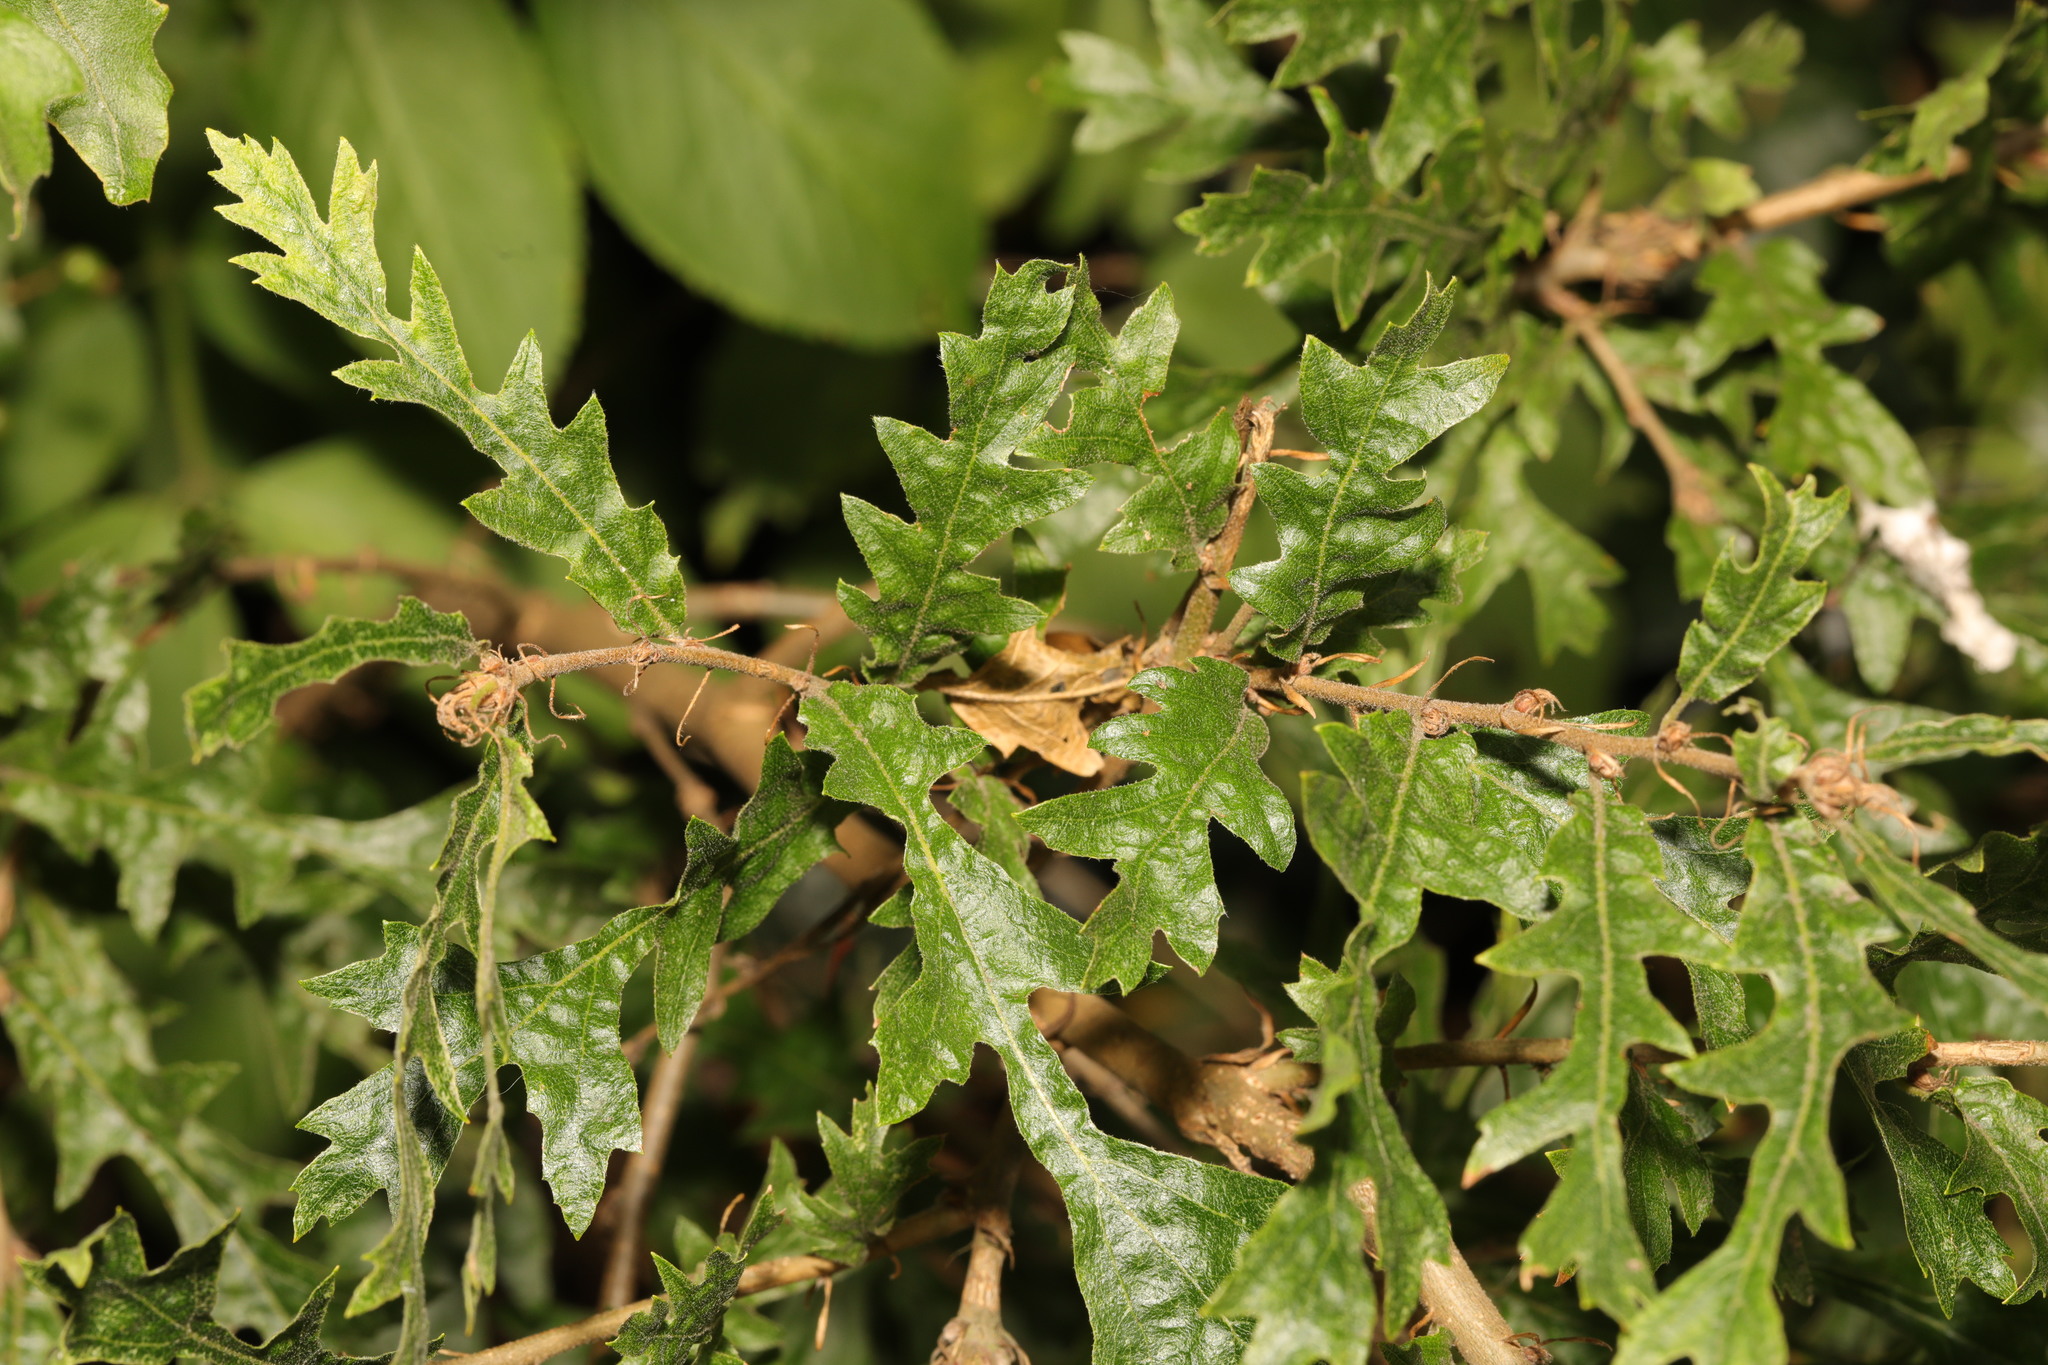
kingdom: Plantae
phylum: Tracheophyta
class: Magnoliopsida
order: Fagales
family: Fagaceae
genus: Quercus
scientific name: Quercus cerris
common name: Turkey oak
